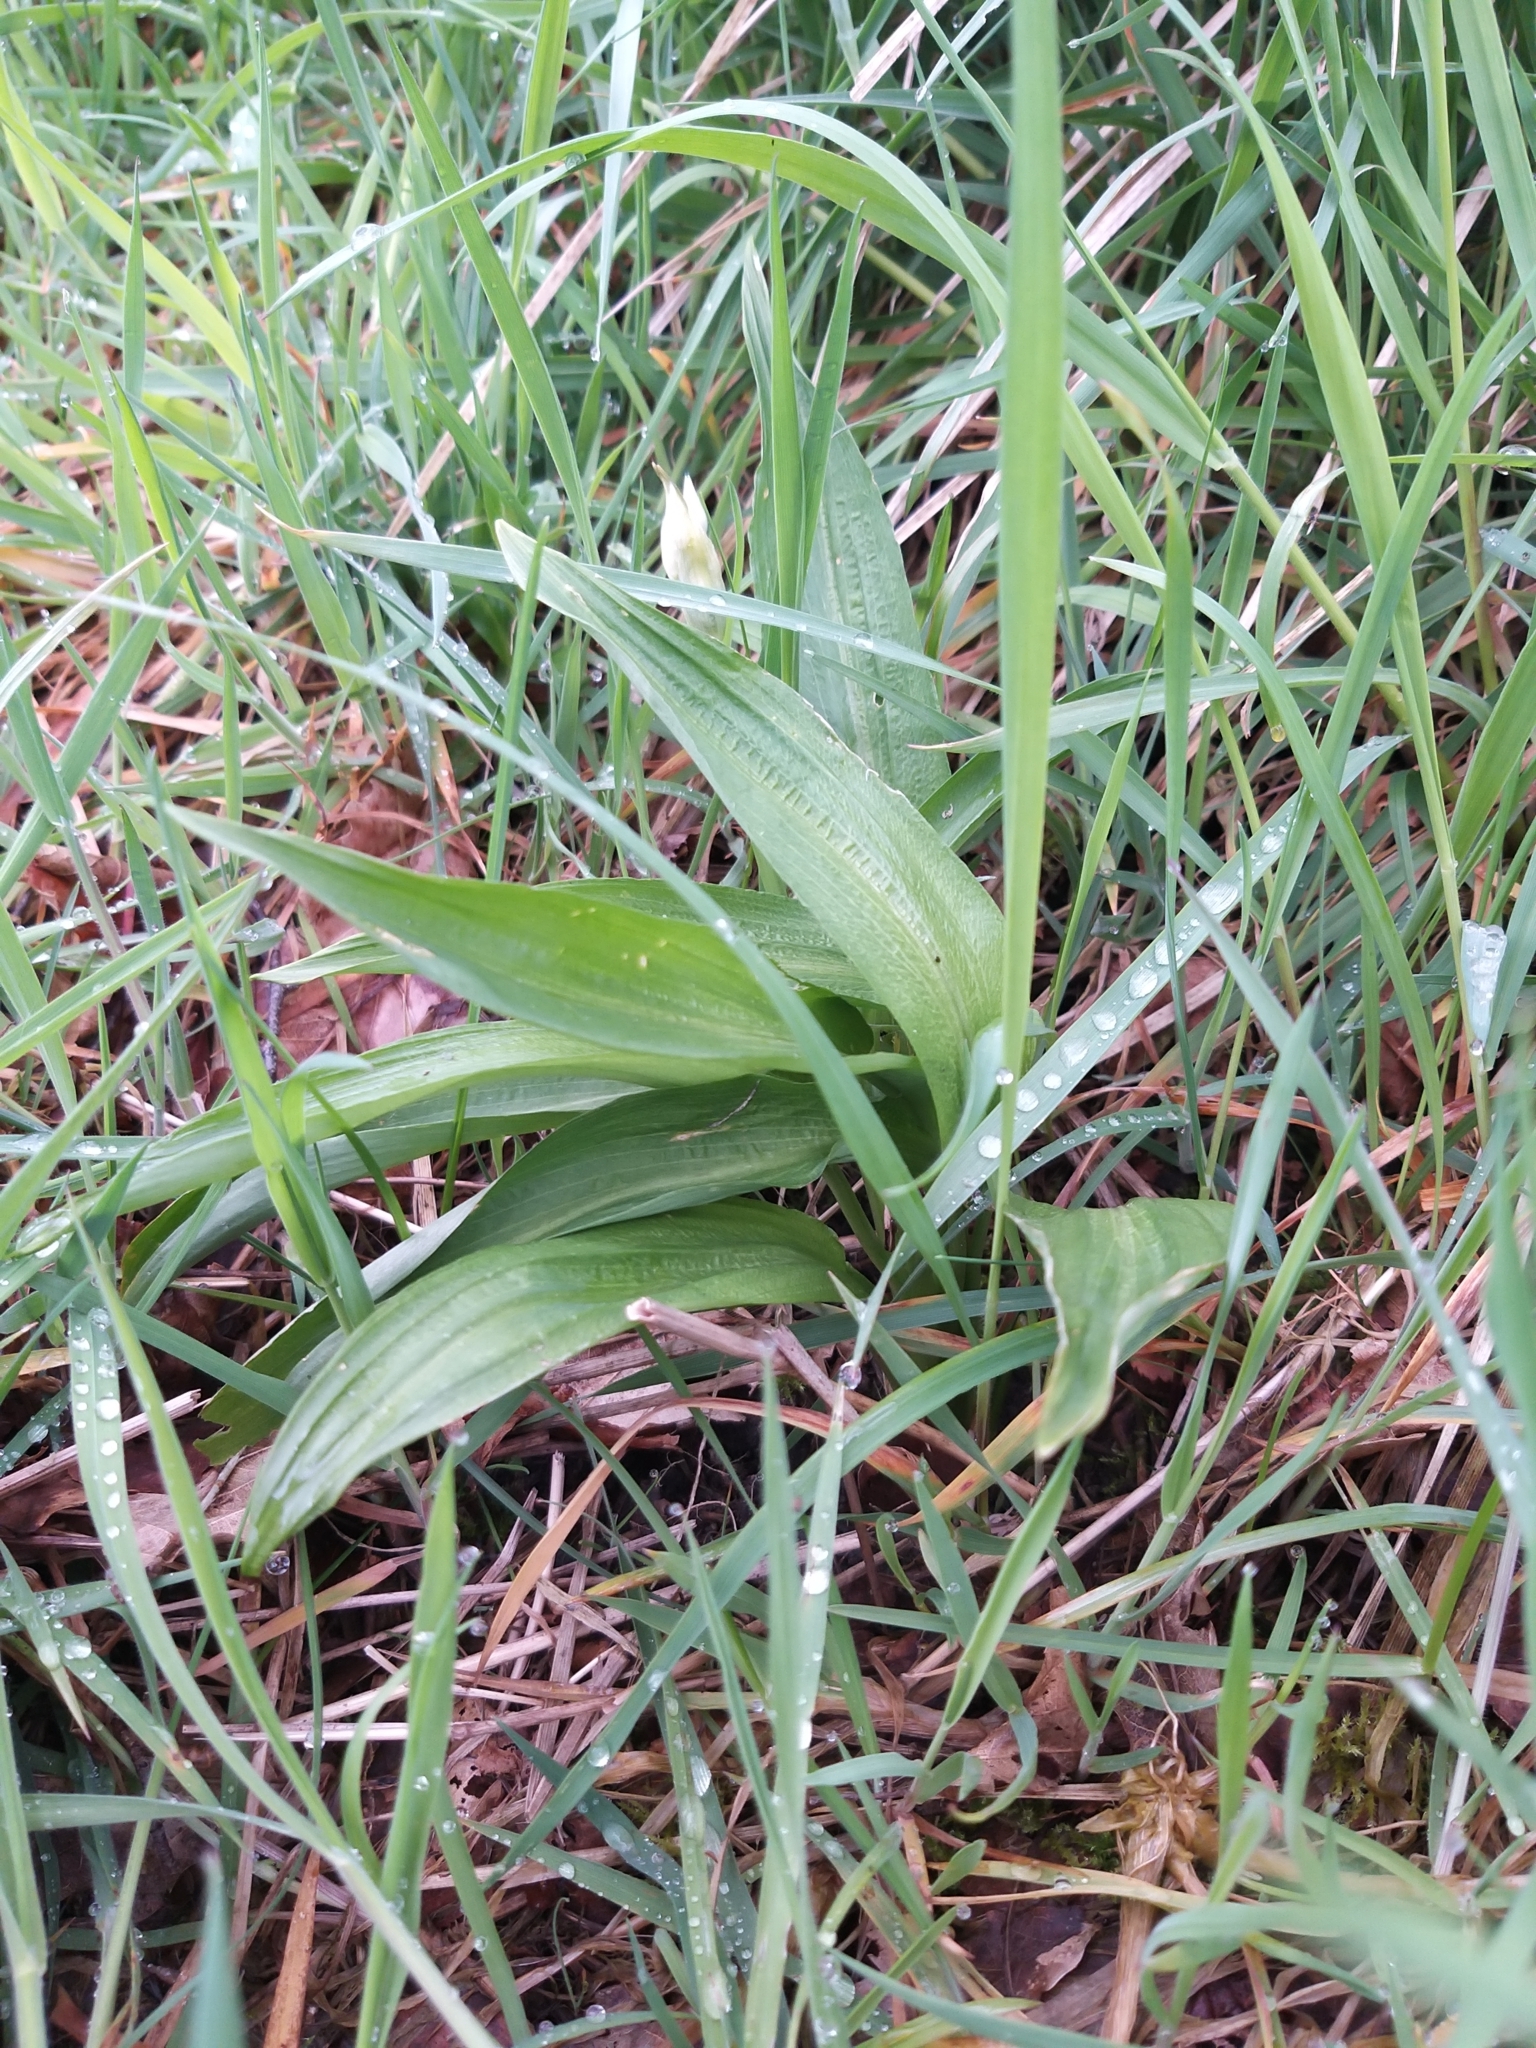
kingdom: Plantae
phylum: Tracheophyta
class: Liliopsida
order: Asparagales
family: Amaryllidaceae
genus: Allium
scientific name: Allium ursinum
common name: Ramsons
